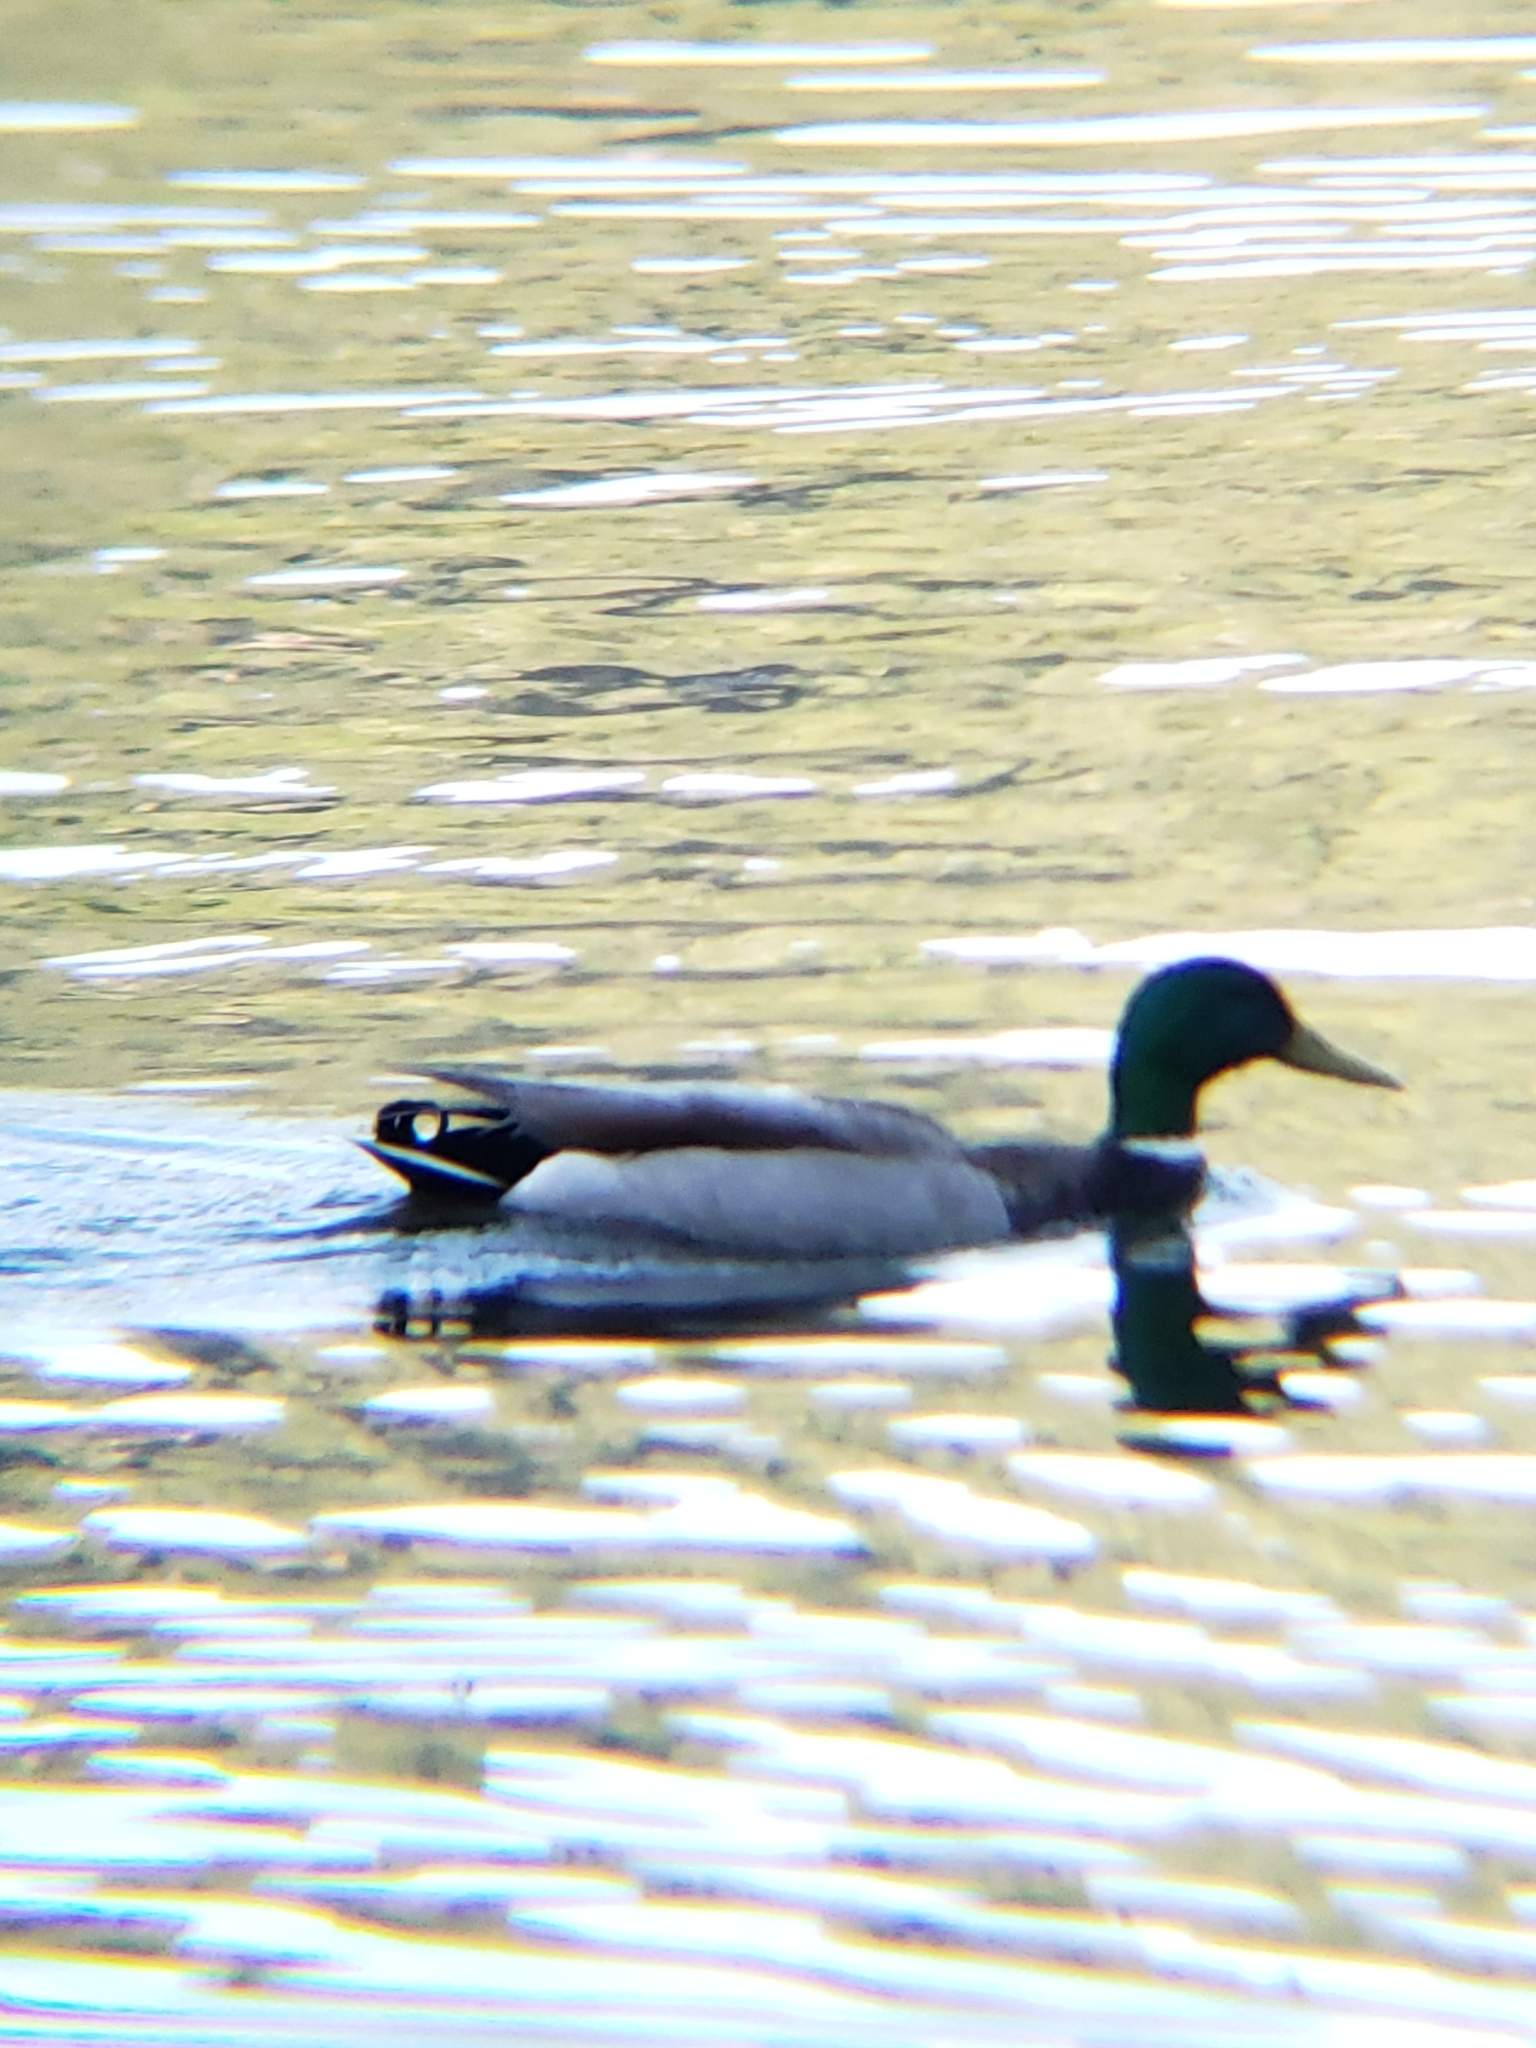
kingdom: Animalia
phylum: Chordata
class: Aves
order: Anseriformes
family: Anatidae
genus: Anas
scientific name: Anas platyrhynchos
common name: Mallard
